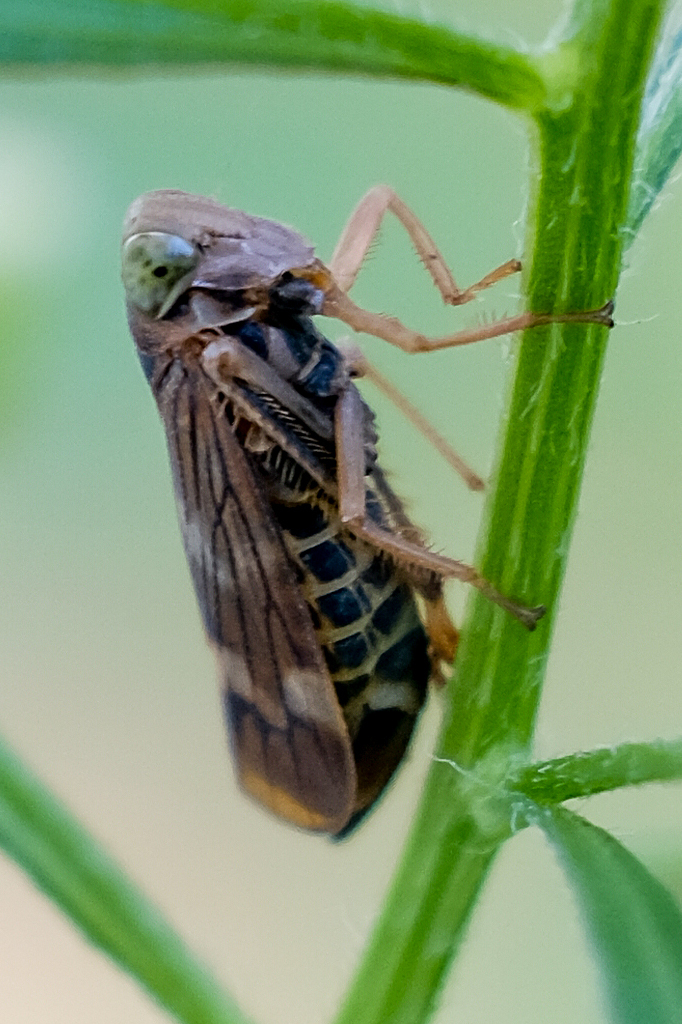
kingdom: Animalia
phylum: Arthropoda
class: Insecta
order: Hemiptera
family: Cicadellidae
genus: Jikradia
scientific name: Jikradia olitoria
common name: Coppery leafhopper
